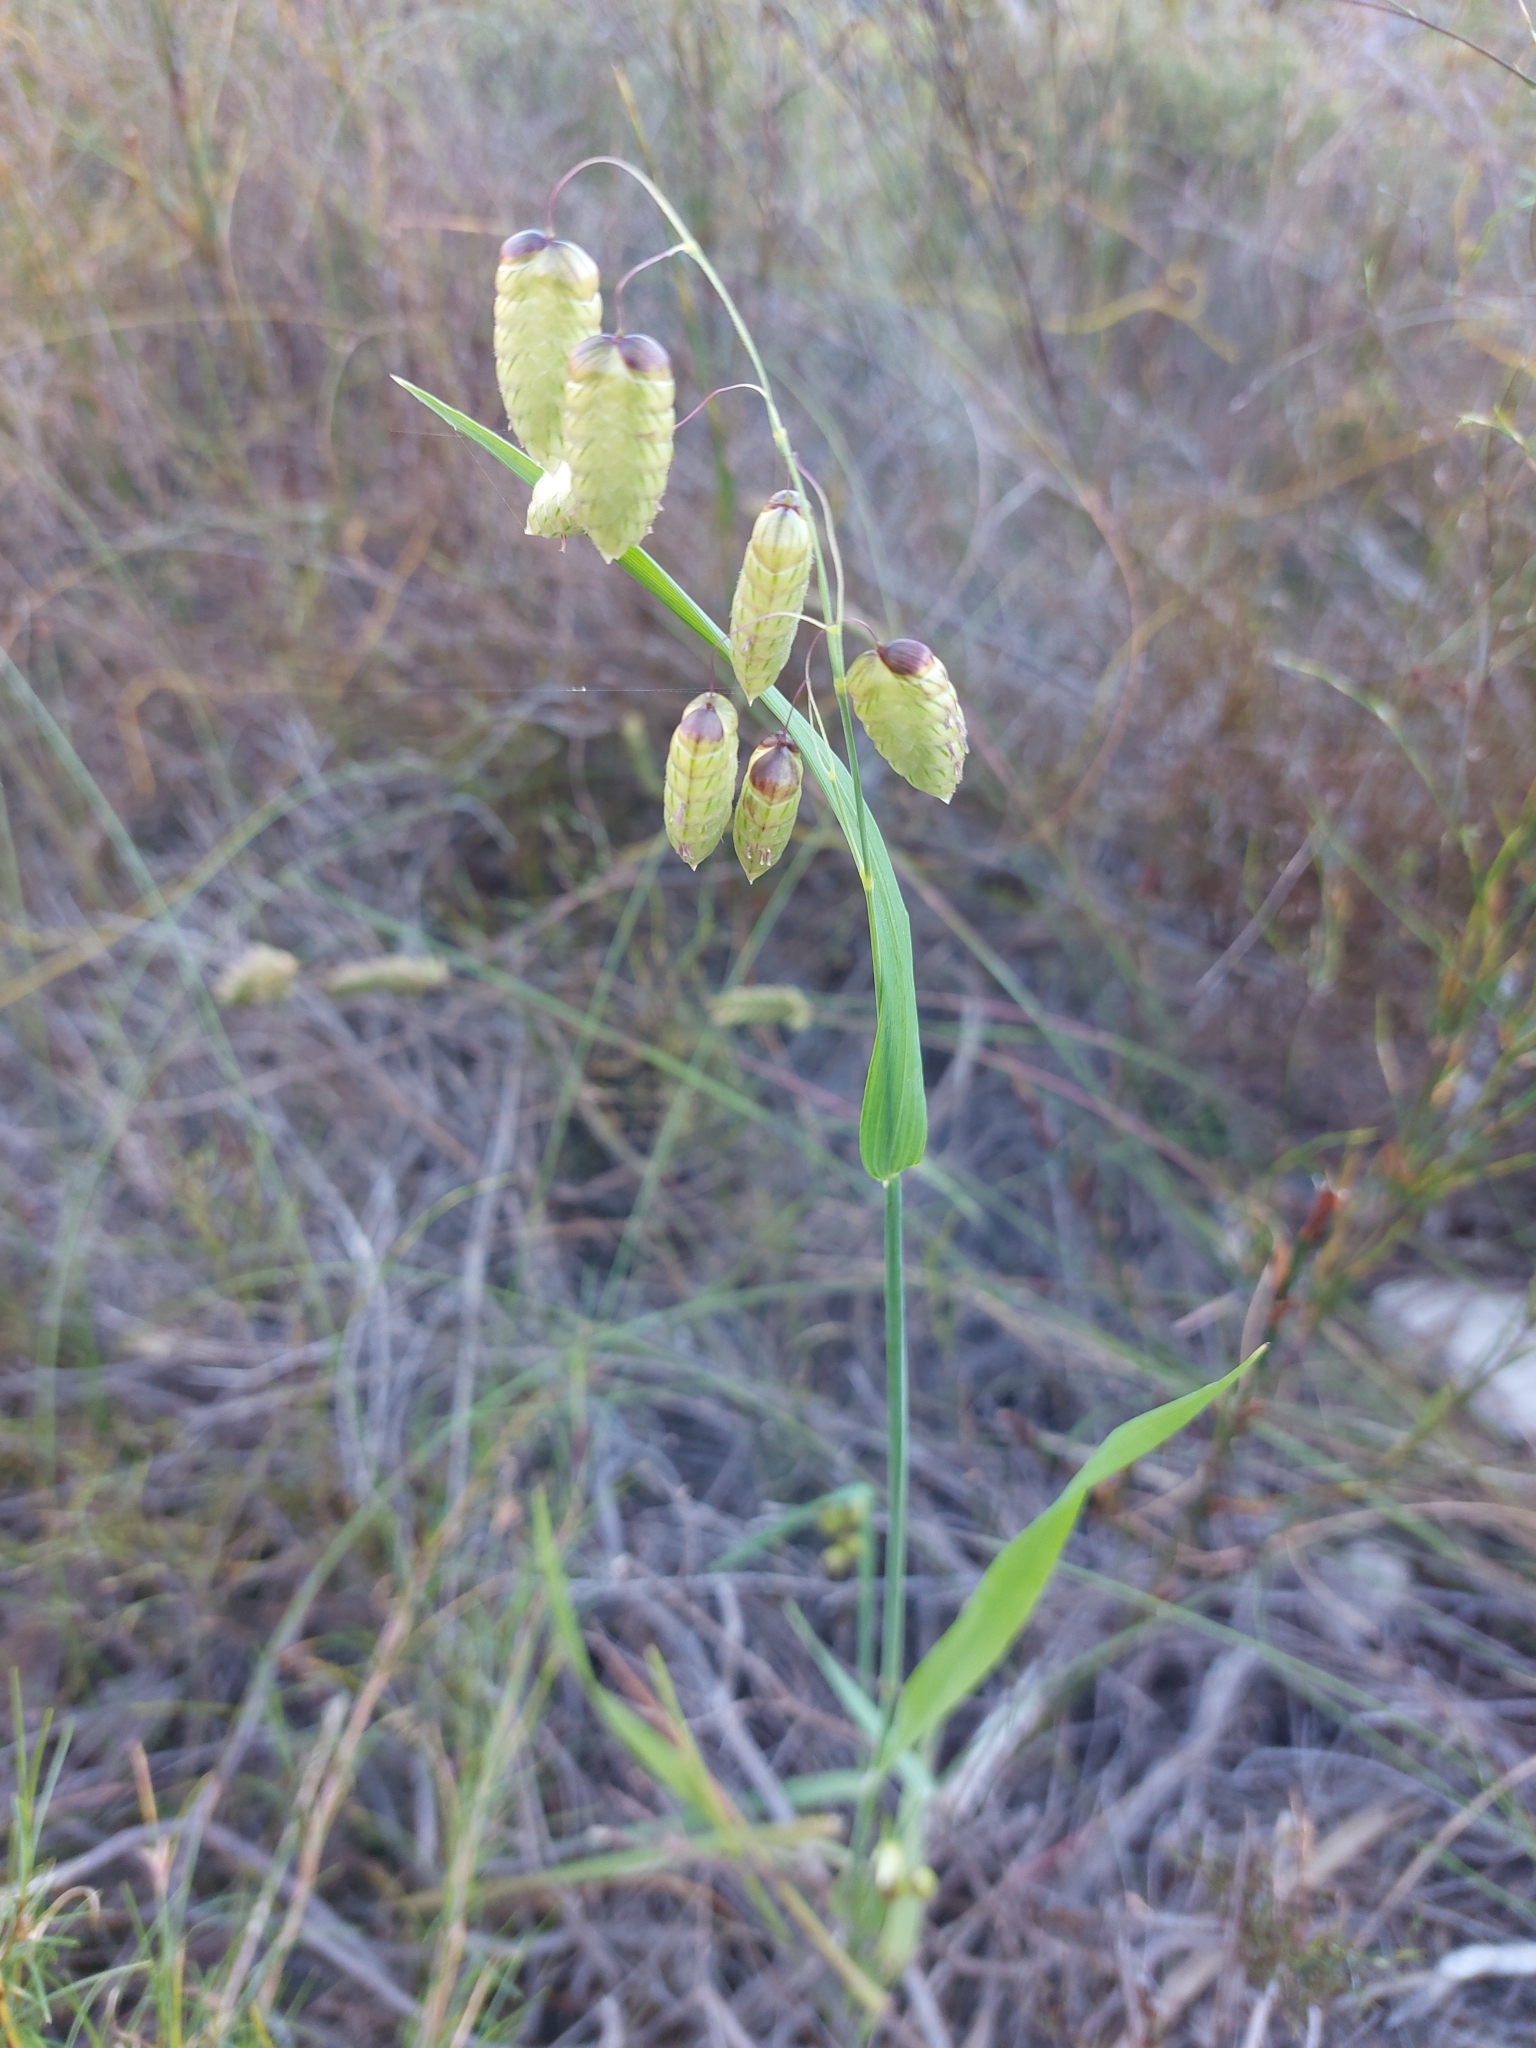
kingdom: Plantae
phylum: Tracheophyta
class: Liliopsida
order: Poales
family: Poaceae
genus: Briza
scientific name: Briza maxima
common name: Big quakinggrass
